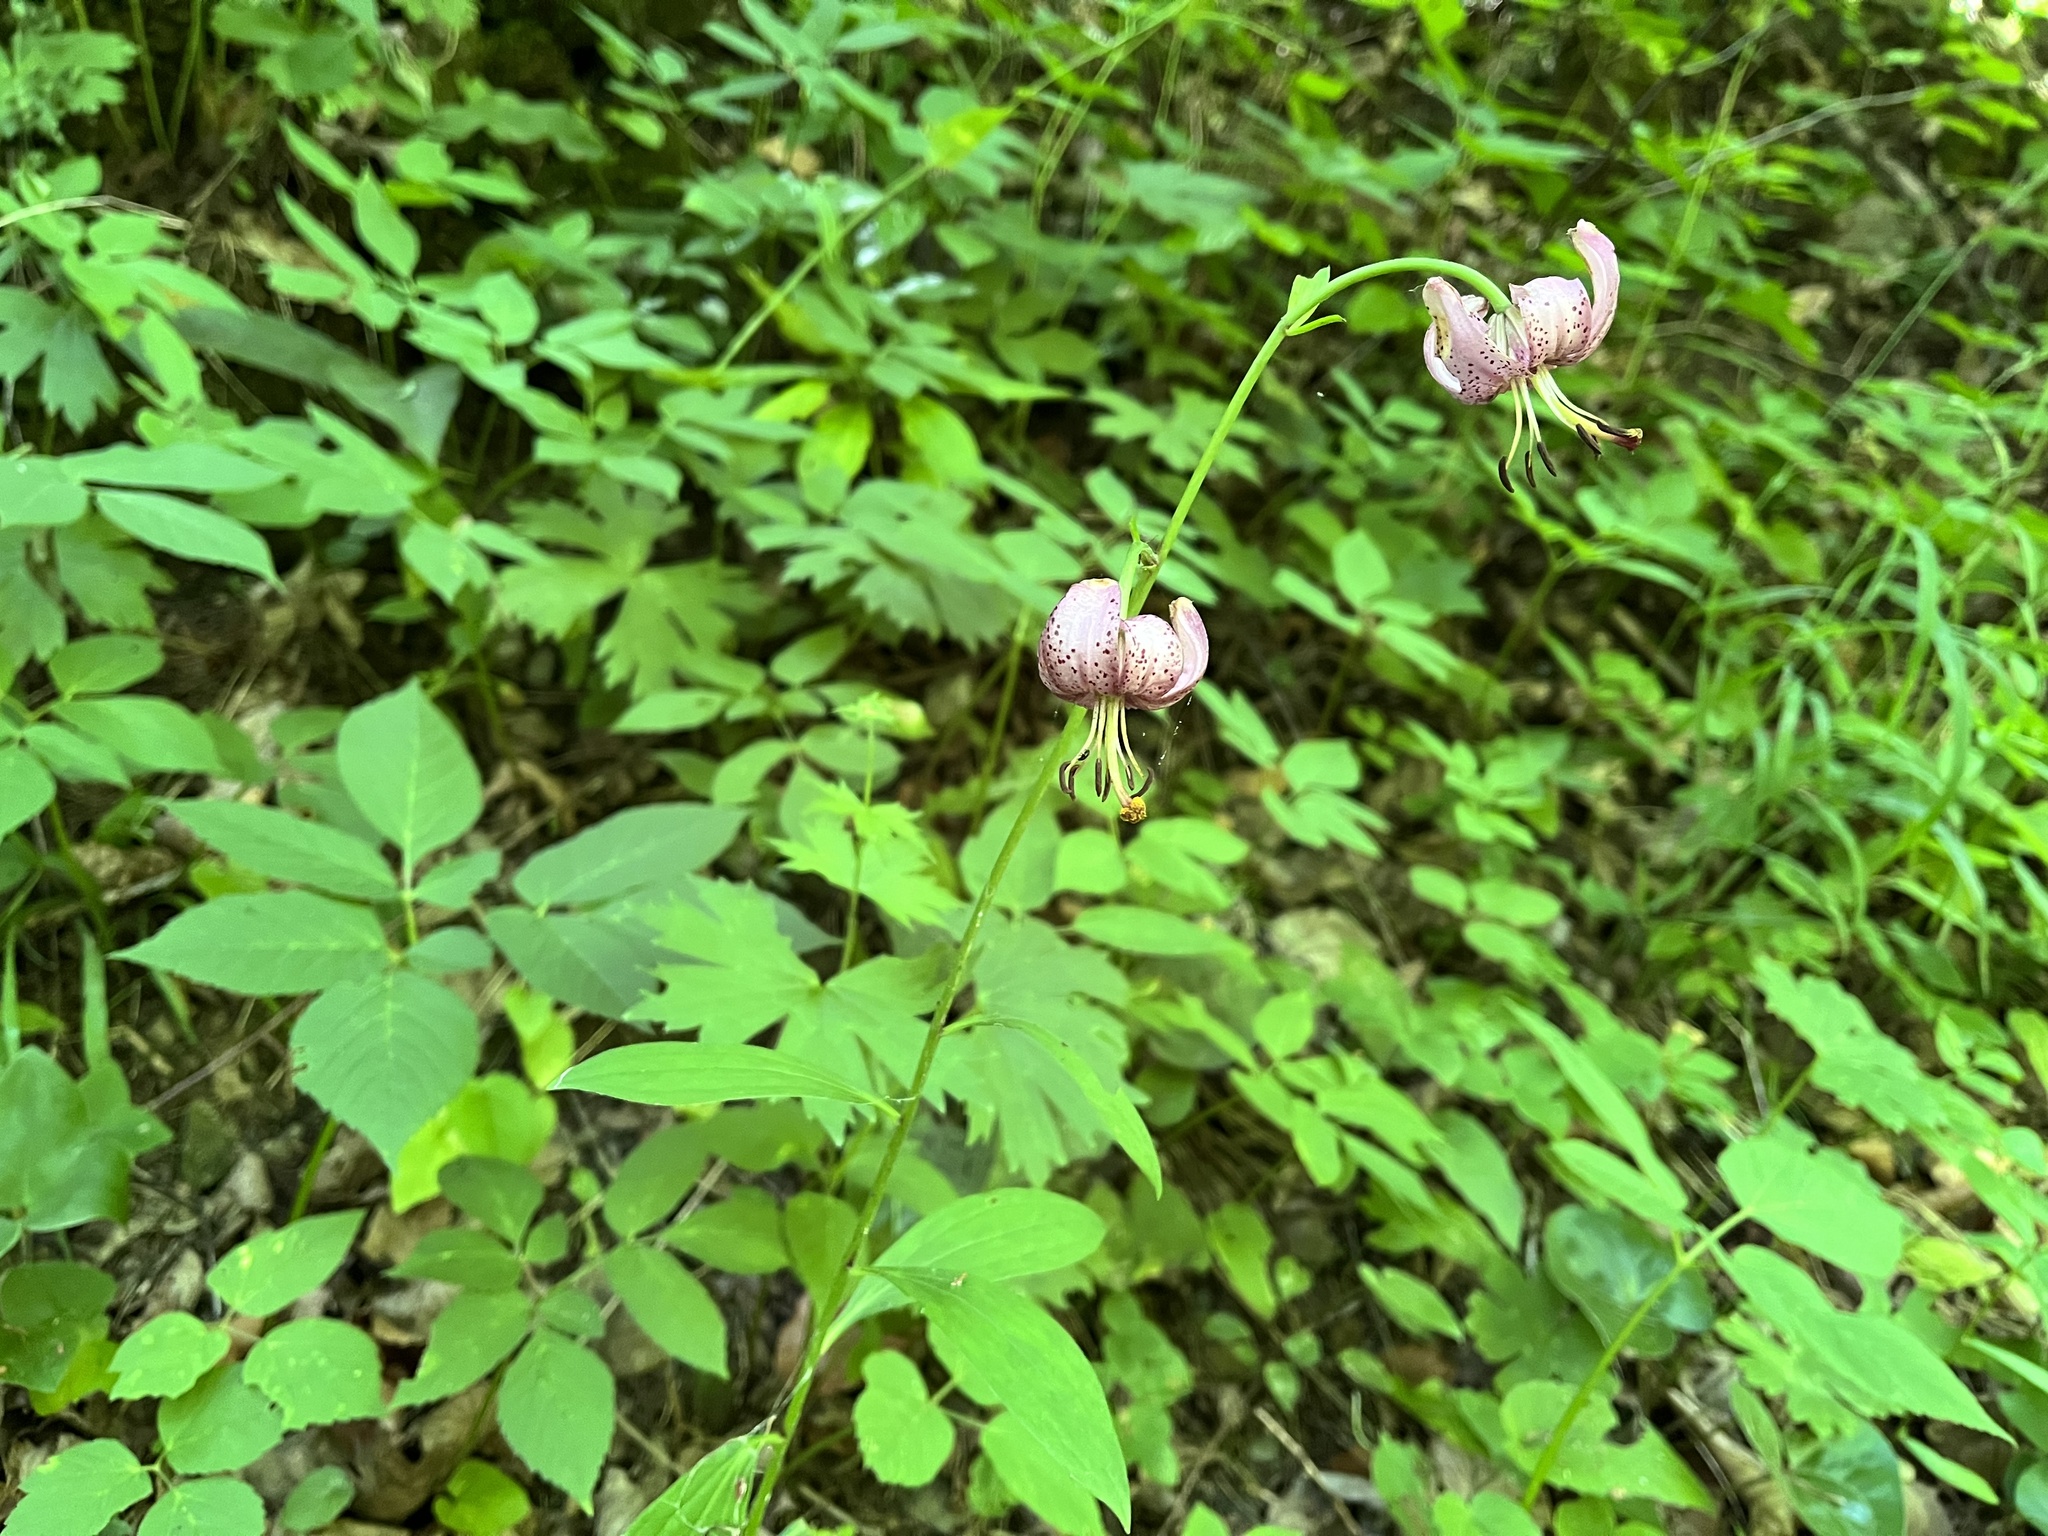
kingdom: Plantae
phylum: Tracheophyta
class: Liliopsida
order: Liliales
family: Liliaceae
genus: Lilium
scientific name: Lilium martagon
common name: Martagon lily
